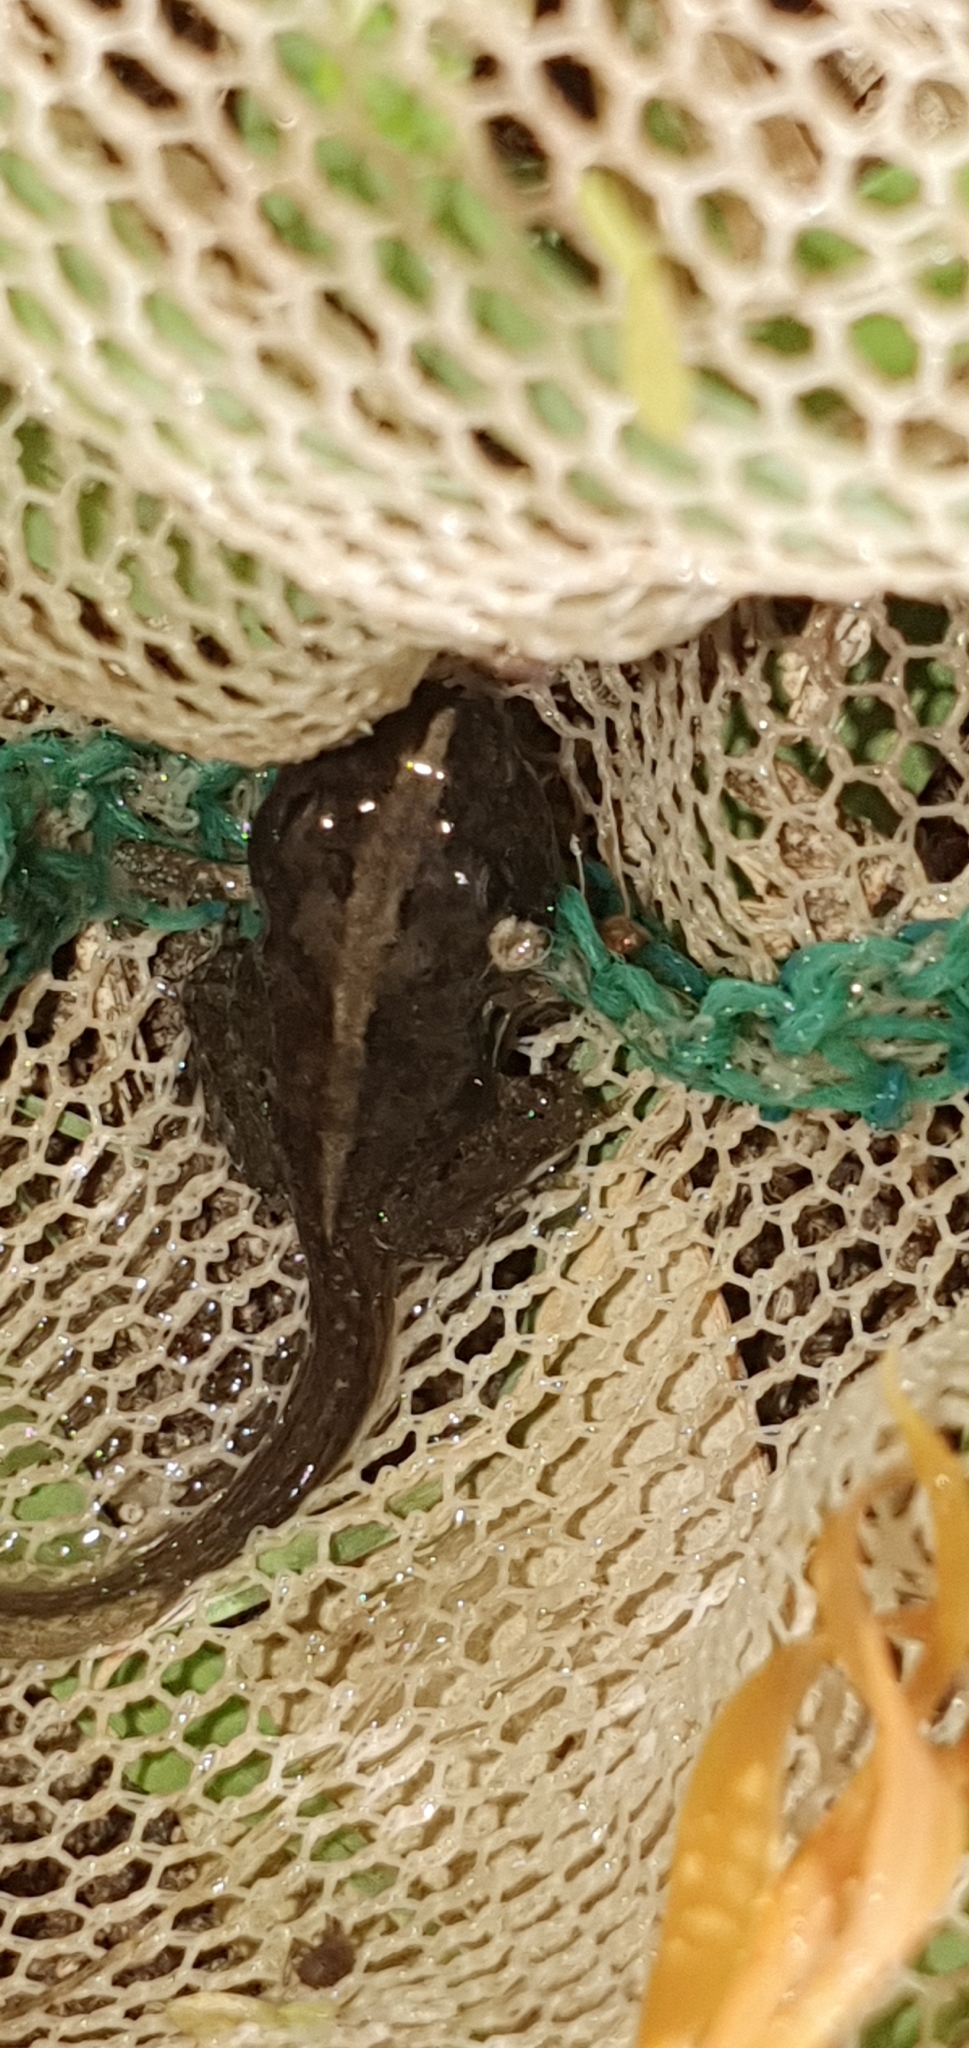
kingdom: Animalia
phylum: Chordata
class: Amphibia
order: Anura
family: Limnodynastidae
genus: Platyplectrum
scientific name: Platyplectrum ornatum
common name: Ornate burrowing frog
